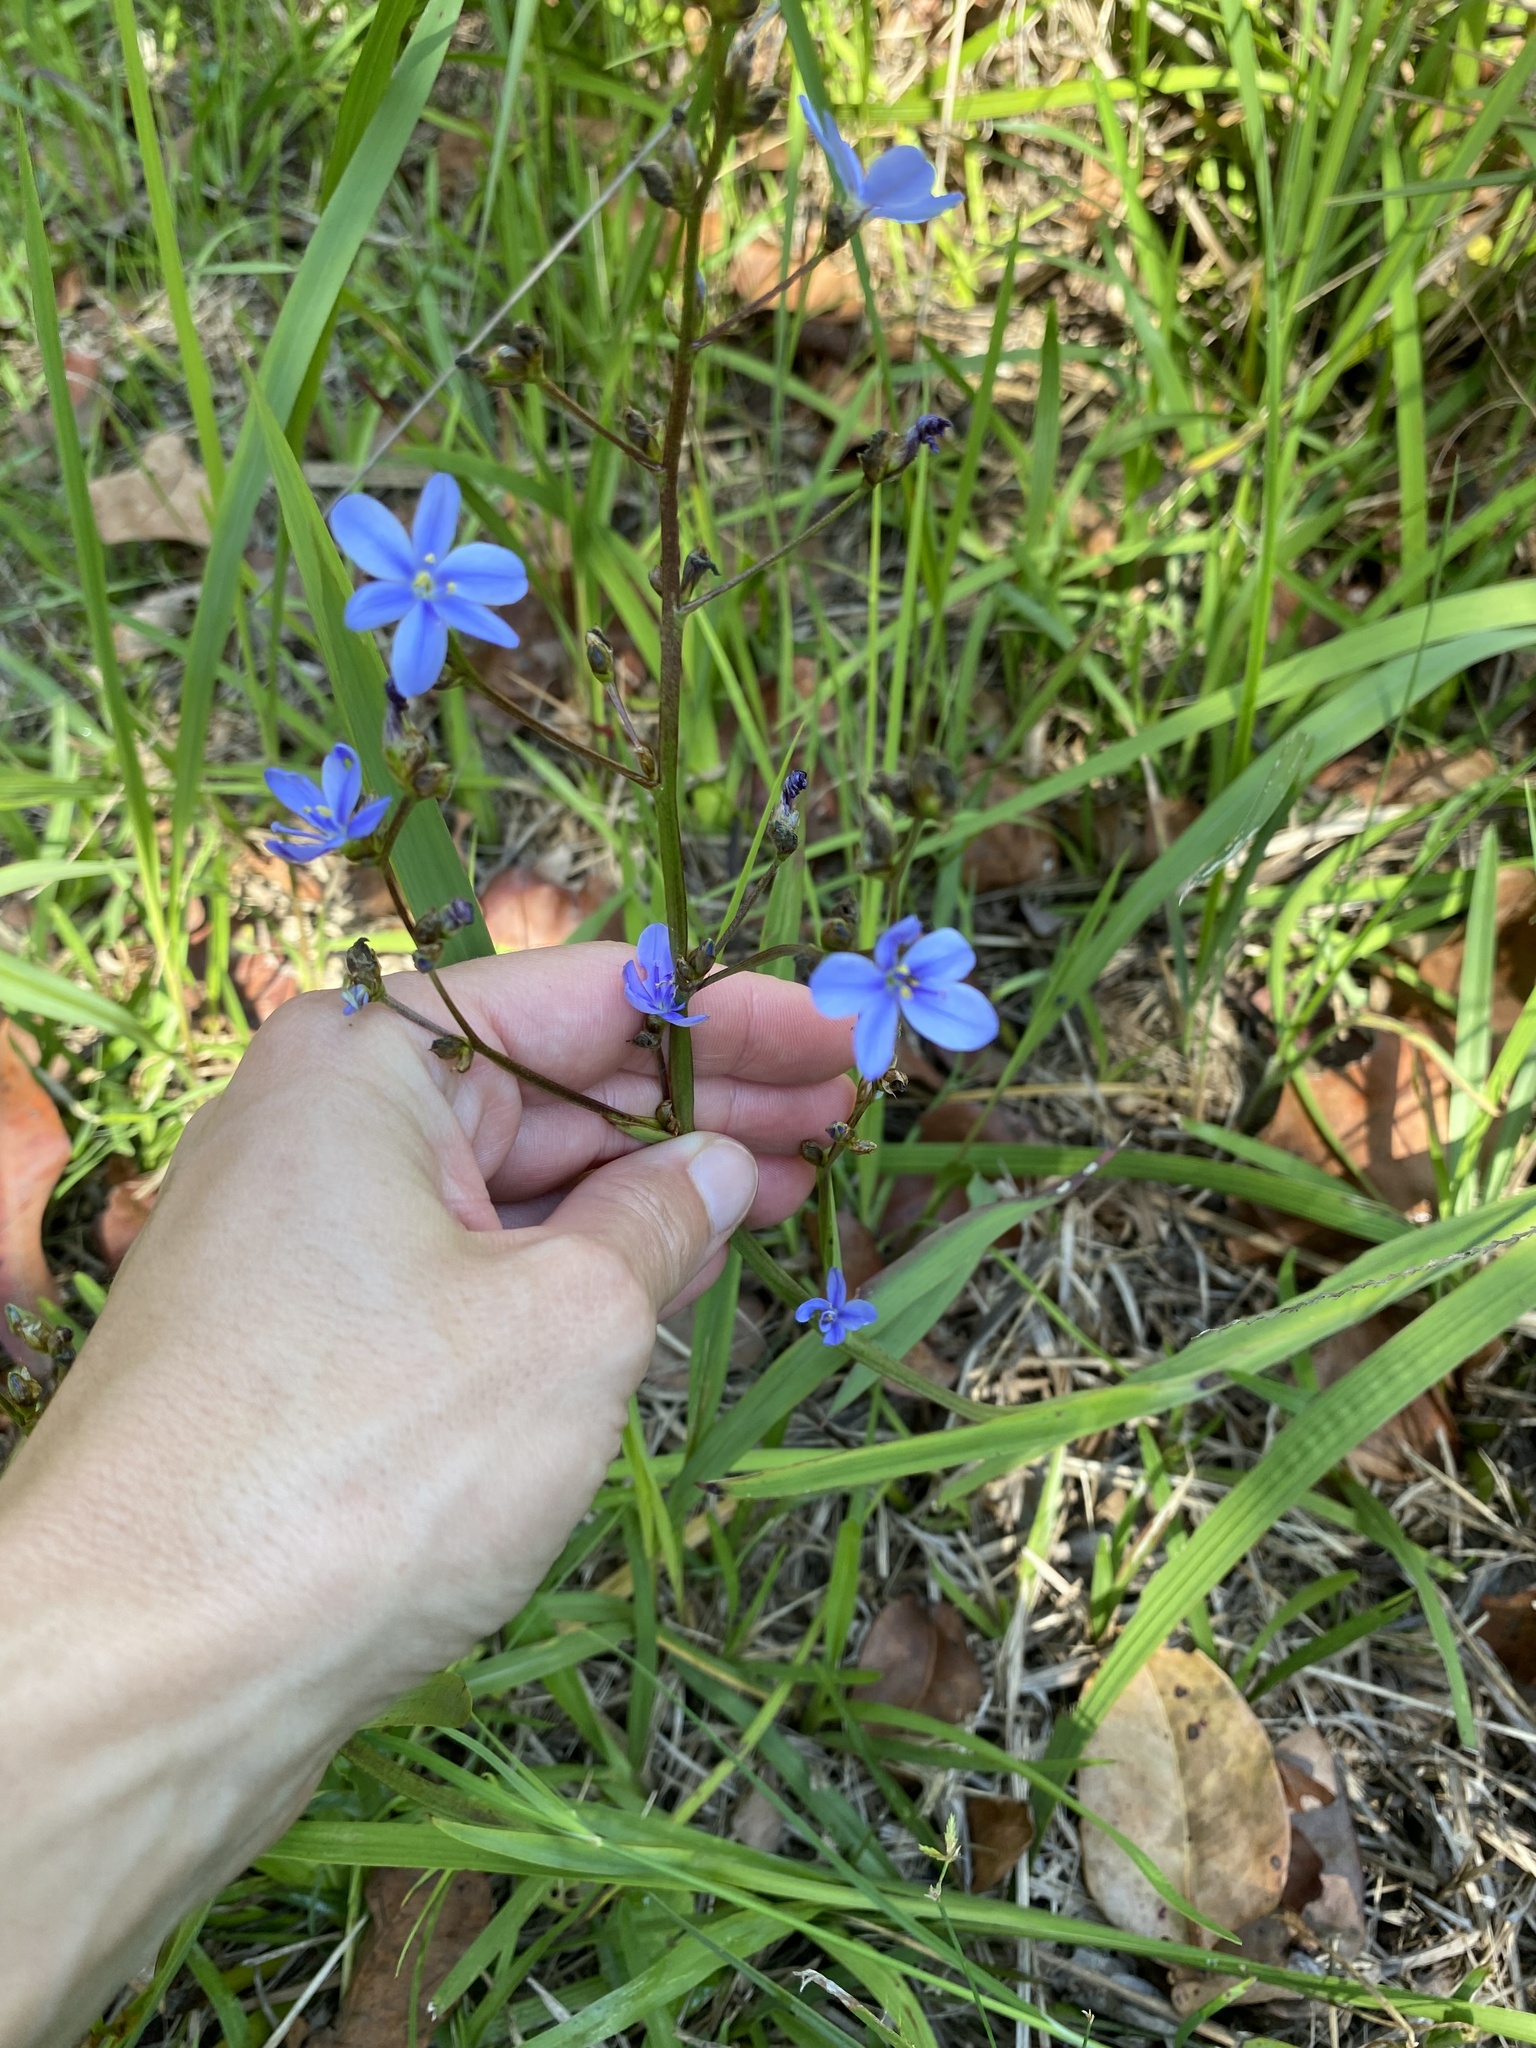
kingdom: Plantae
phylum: Tracheophyta
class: Liliopsida
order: Asparagales
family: Iridaceae
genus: Aristea
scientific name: Aristea ecklonii
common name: Blue corn-lily
